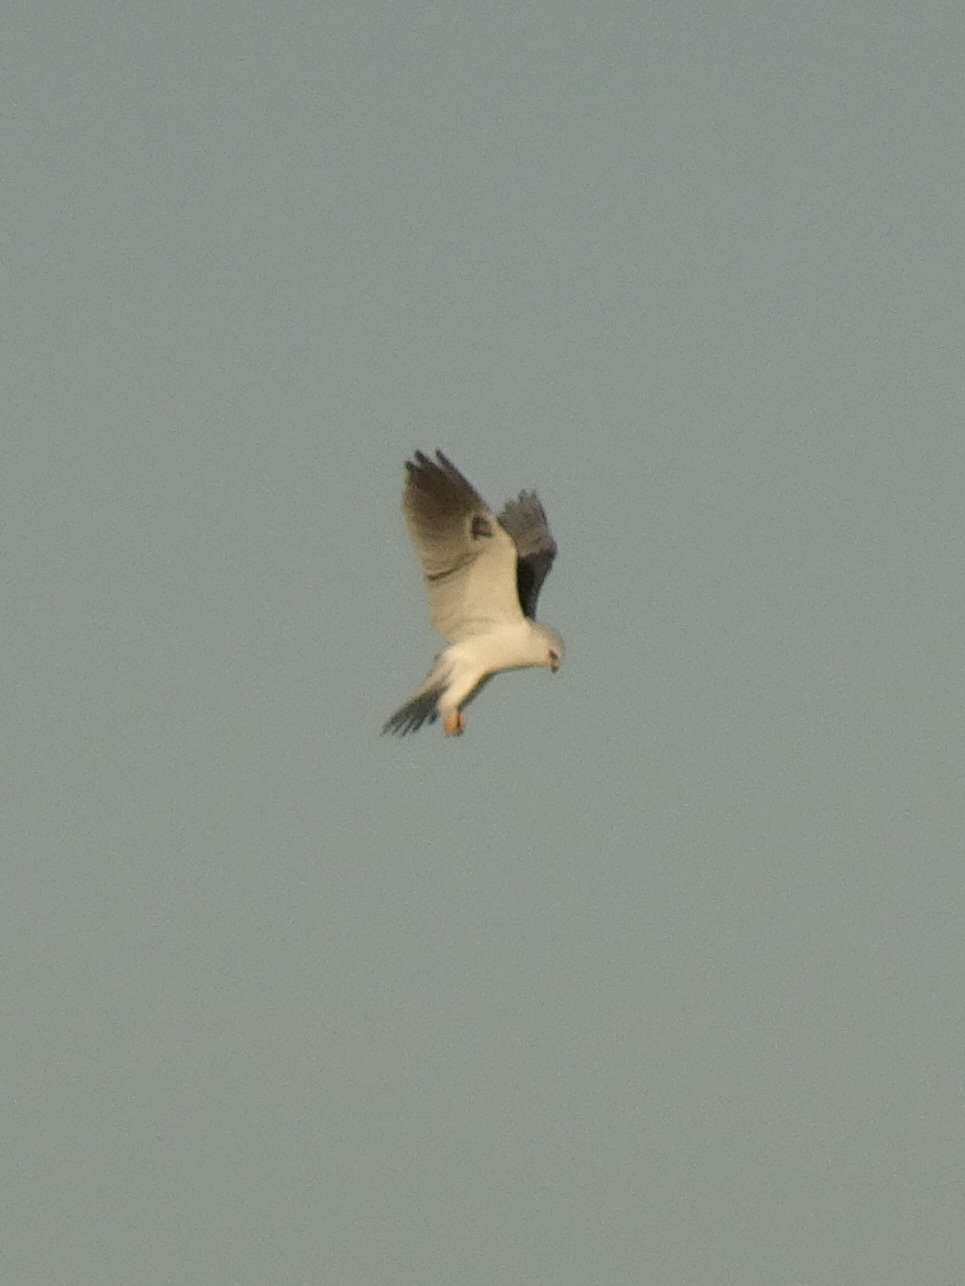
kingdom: Animalia
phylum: Chordata
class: Aves
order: Accipitriformes
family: Accipitridae
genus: Elanus
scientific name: Elanus leucurus
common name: White-tailed kite
